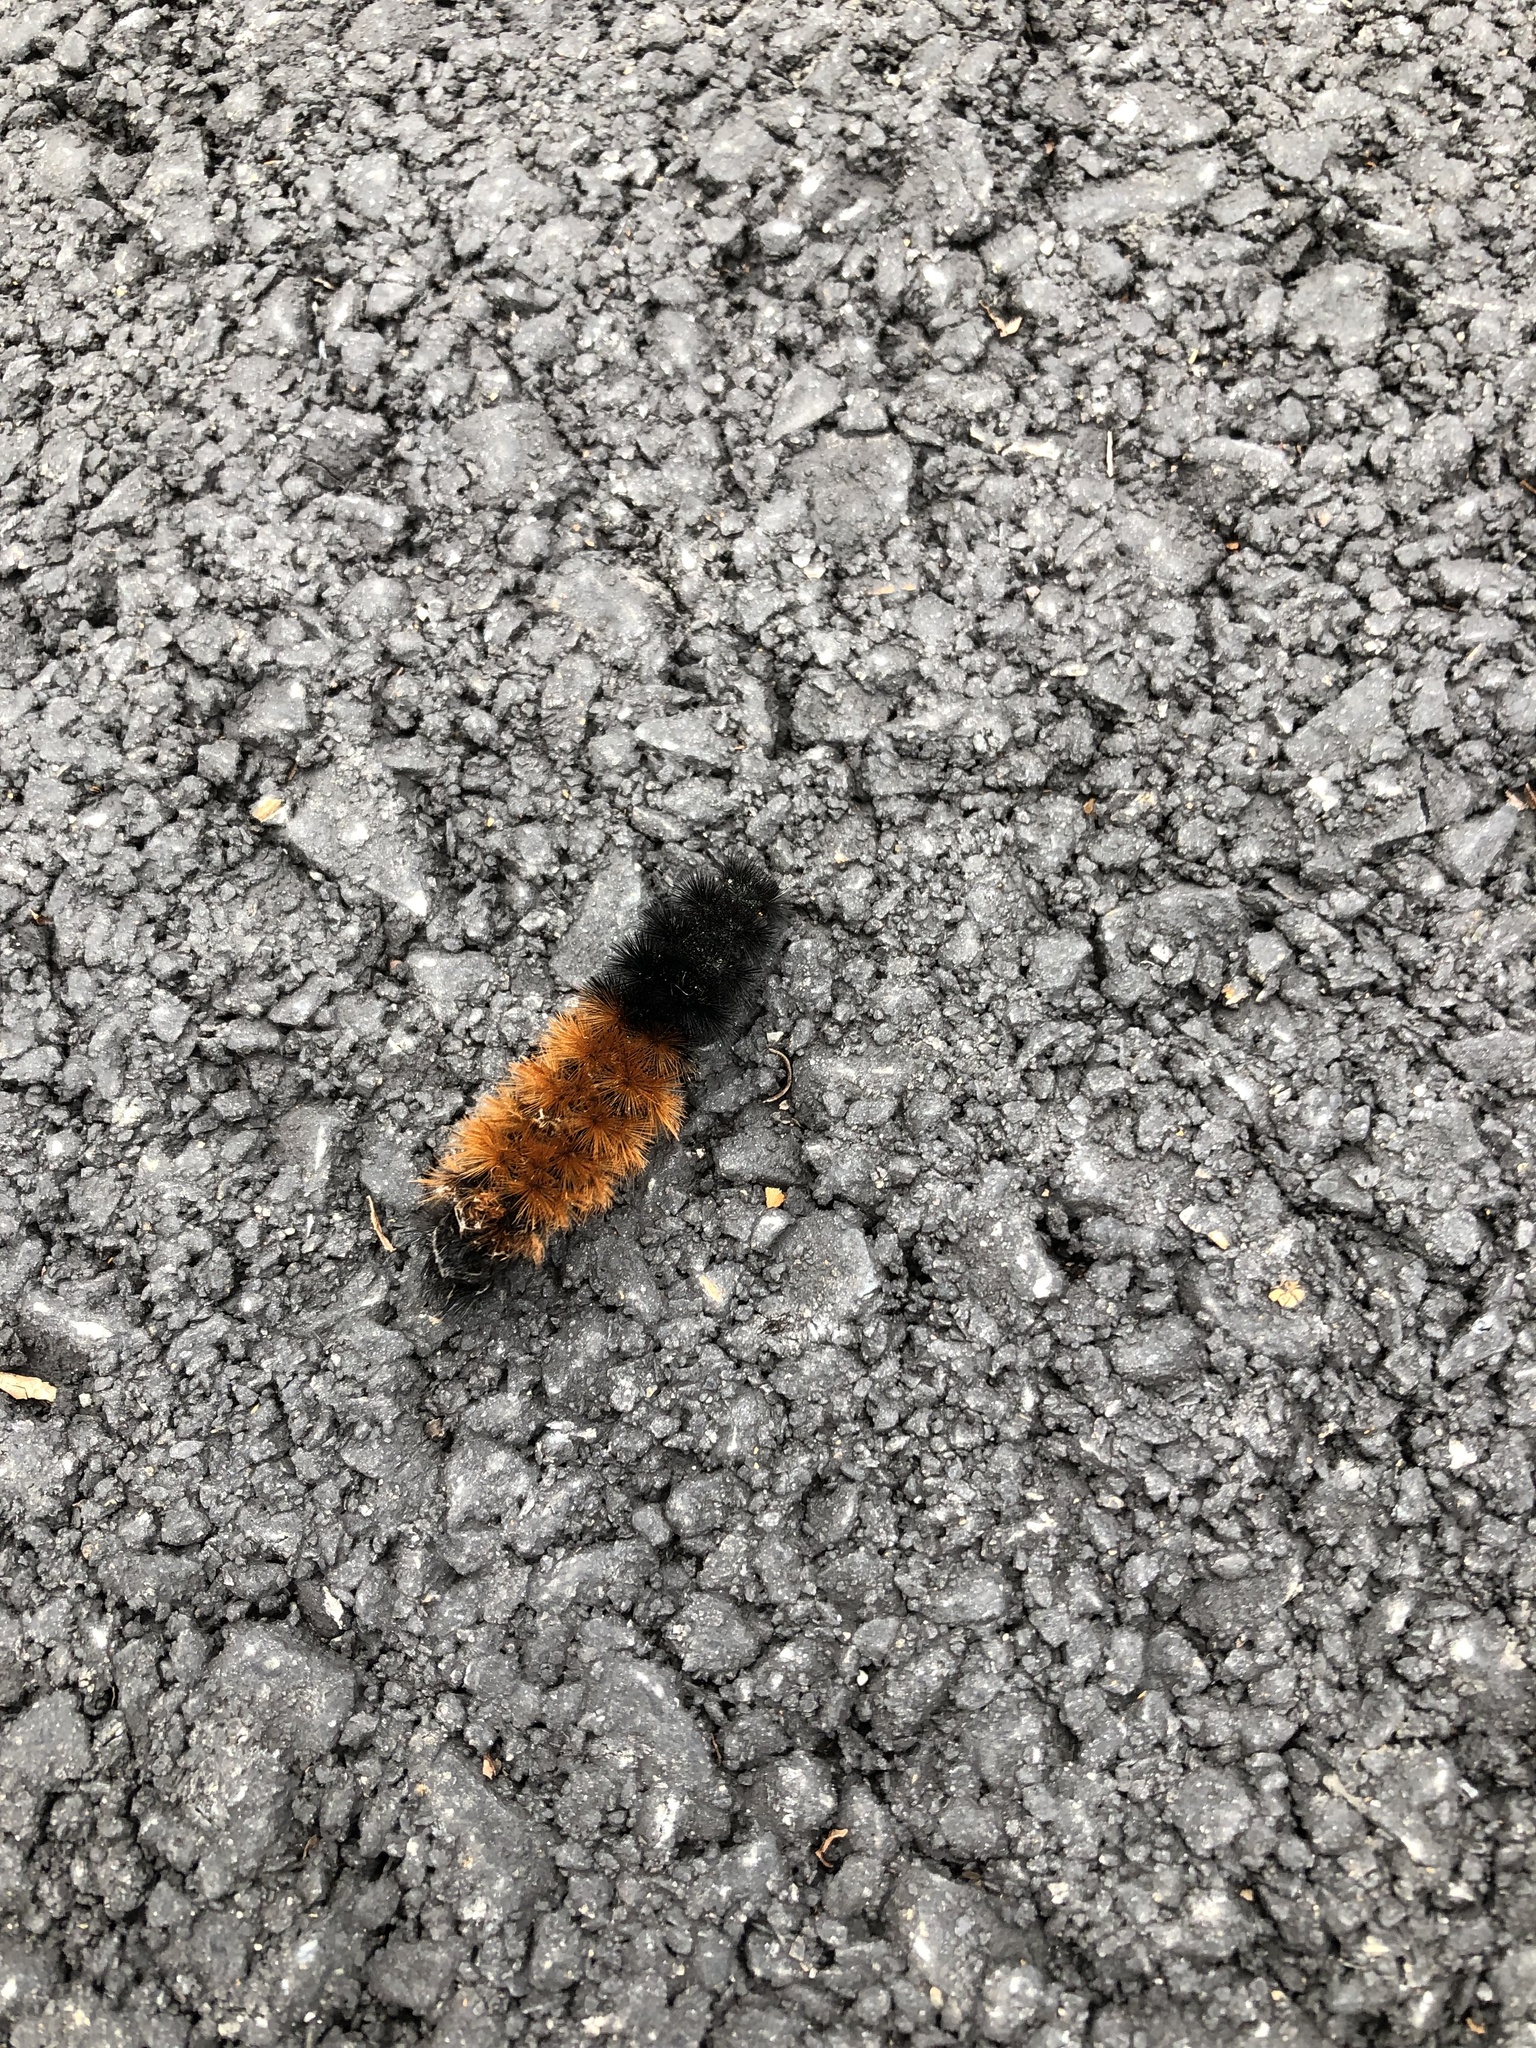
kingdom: Animalia
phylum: Arthropoda
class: Insecta
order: Lepidoptera
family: Erebidae
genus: Pyrrharctia
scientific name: Pyrrharctia isabella
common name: Isabella tiger moth
